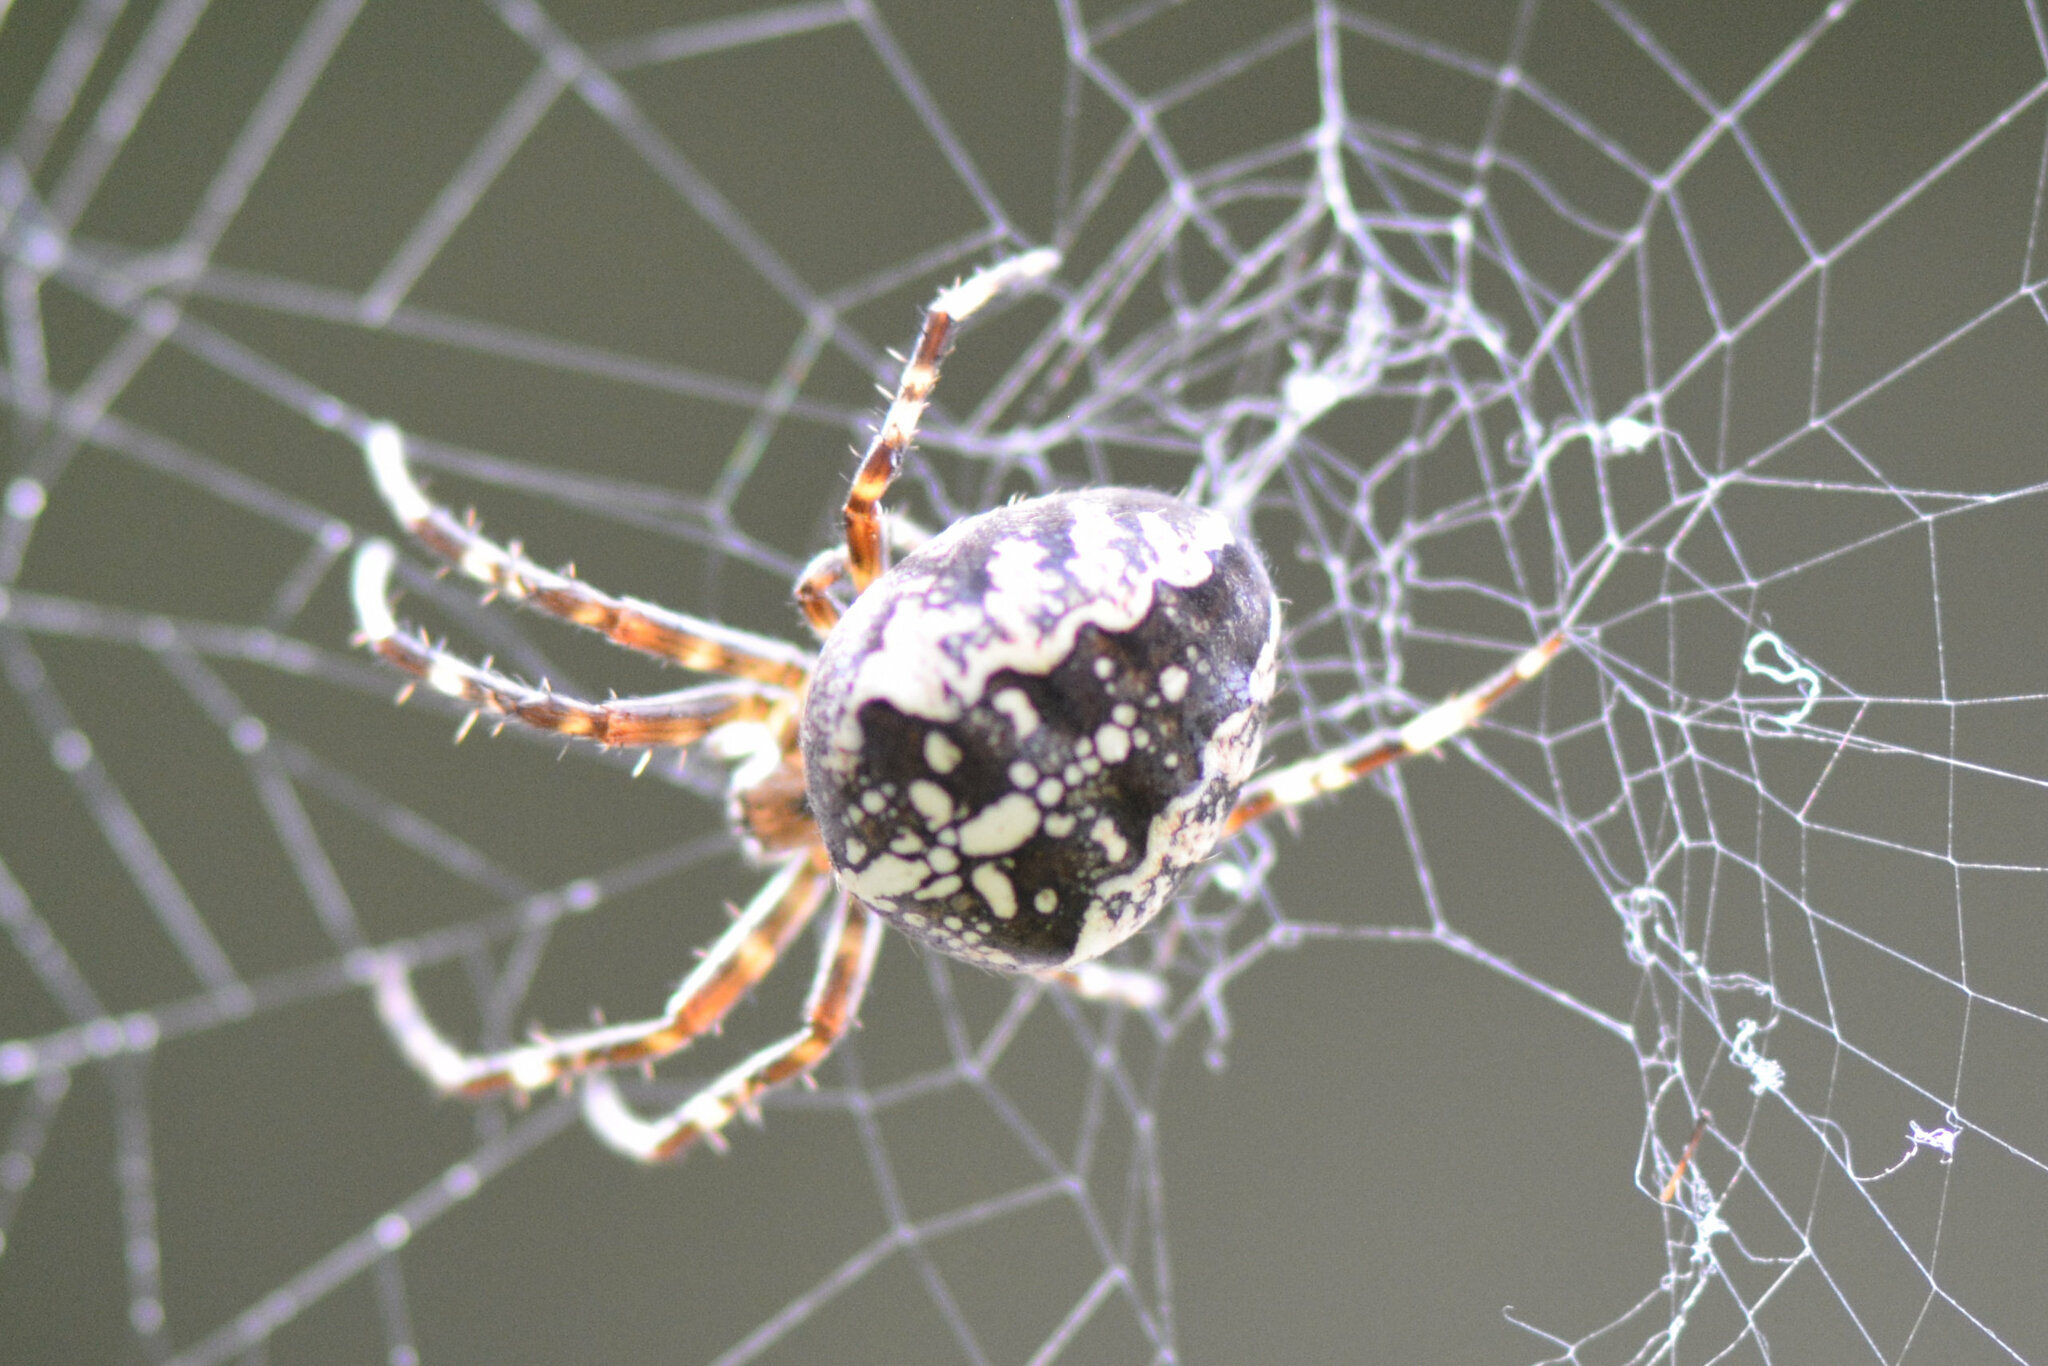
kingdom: Animalia
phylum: Arthropoda
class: Arachnida
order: Araneae
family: Araneidae
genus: Araneus
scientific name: Araneus diadematus
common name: Cross orbweaver
